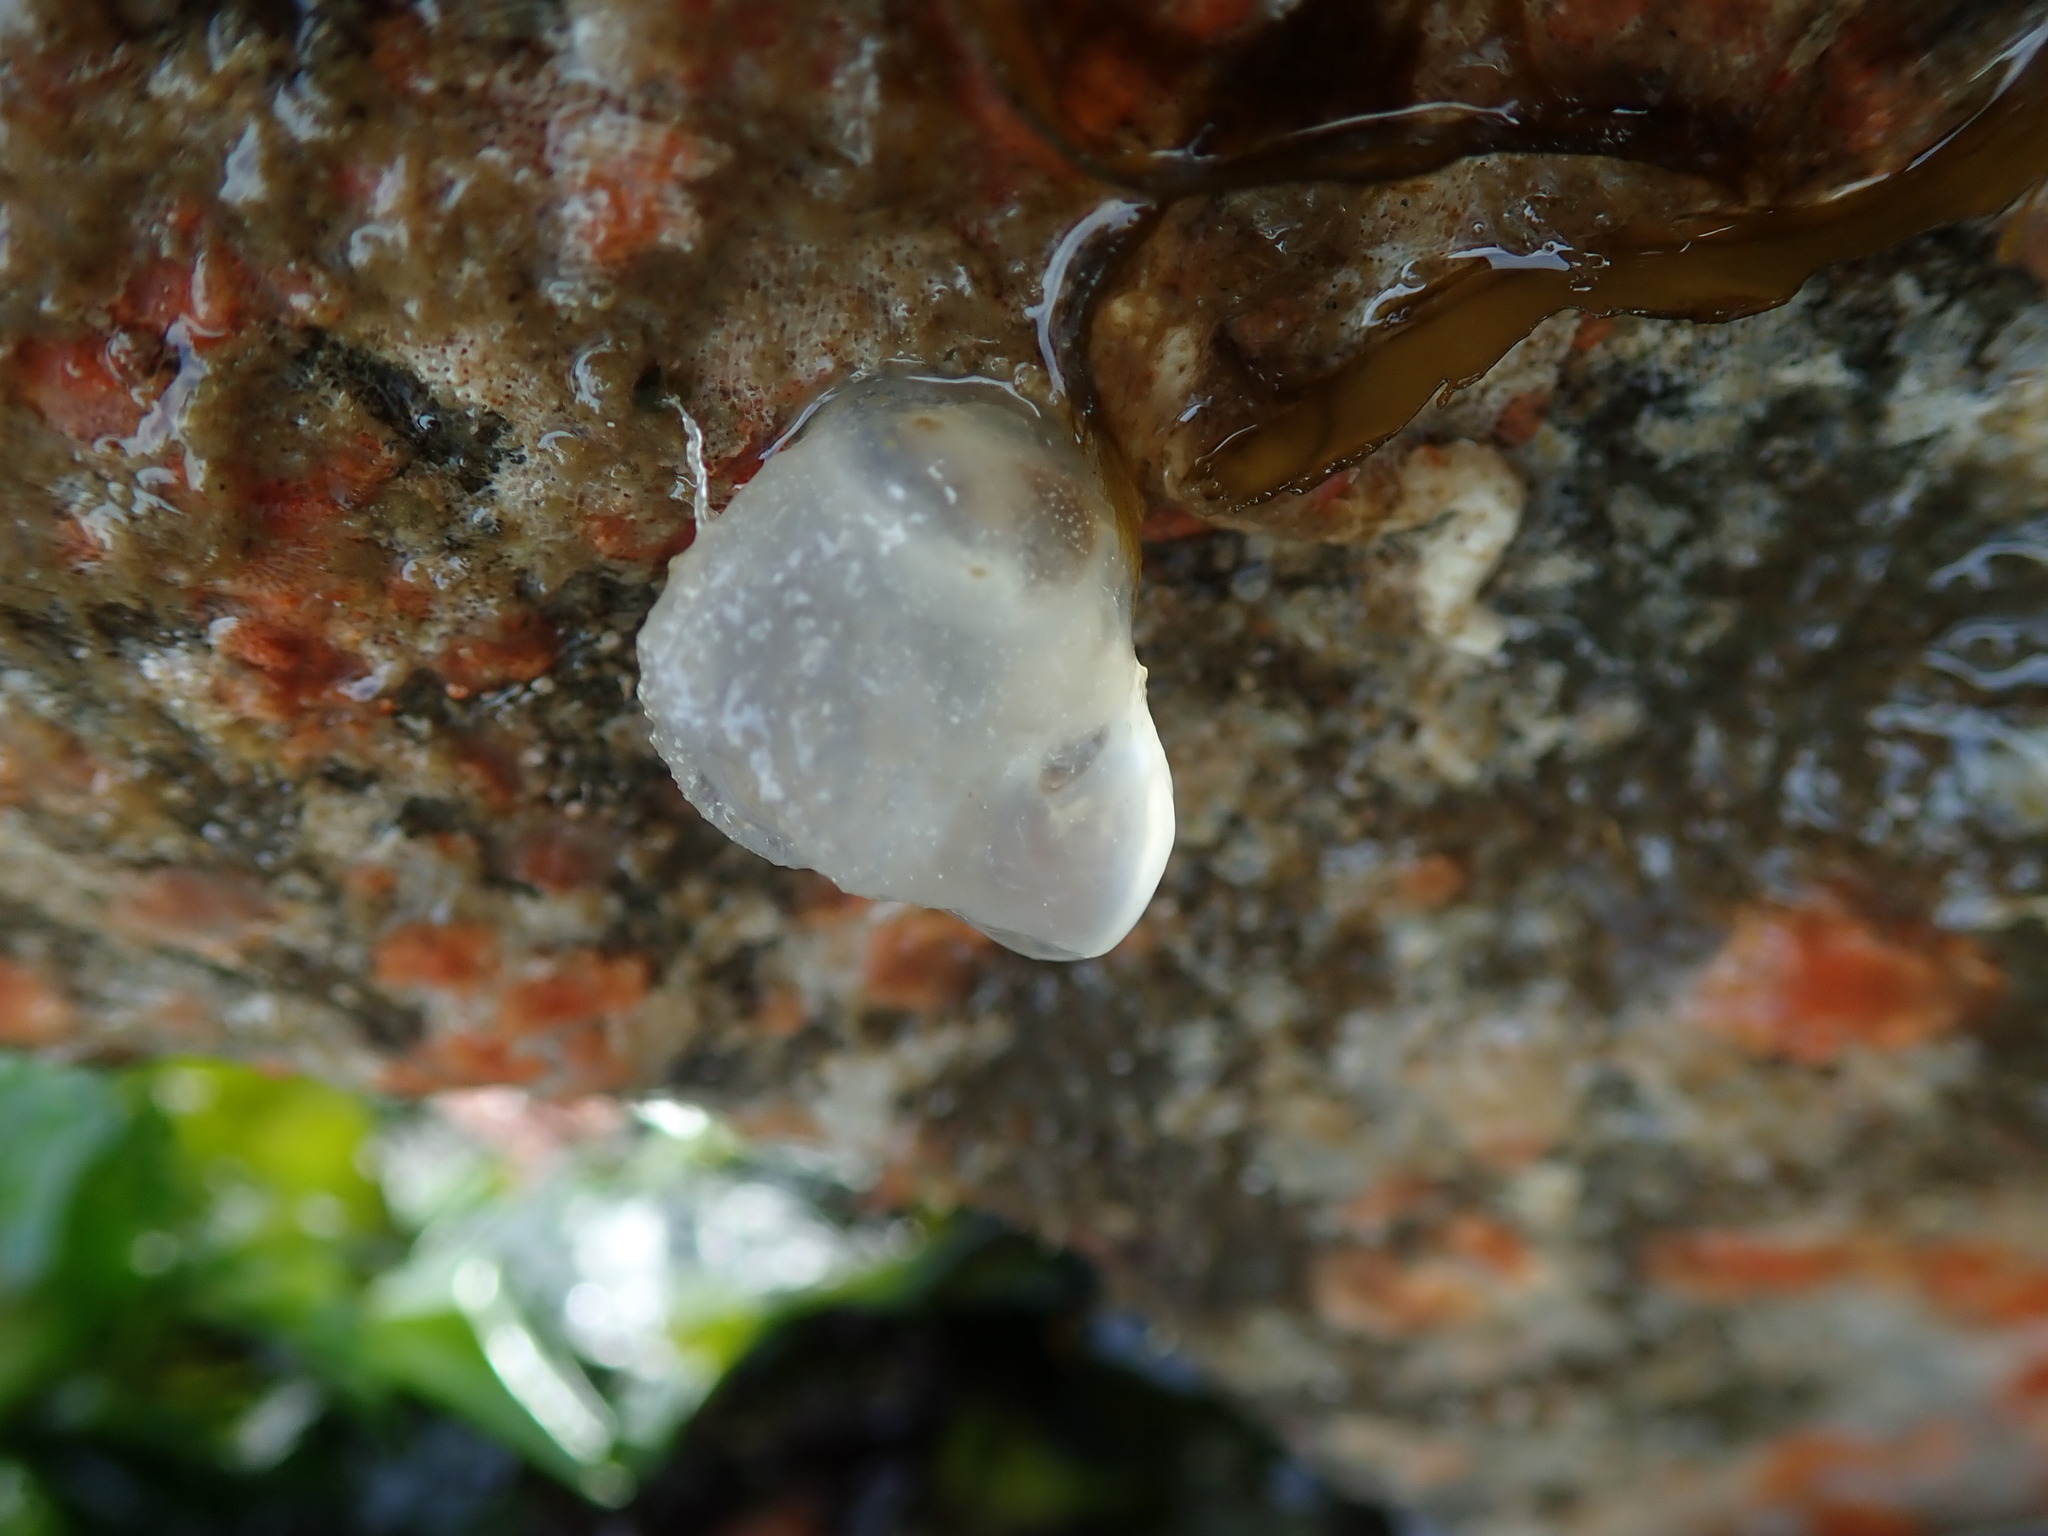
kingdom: Animalia
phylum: Chordata
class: Ascidiacea
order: Phlebobranchia
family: Corellidae
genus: Corella
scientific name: Corella inflata
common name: Ascidian
